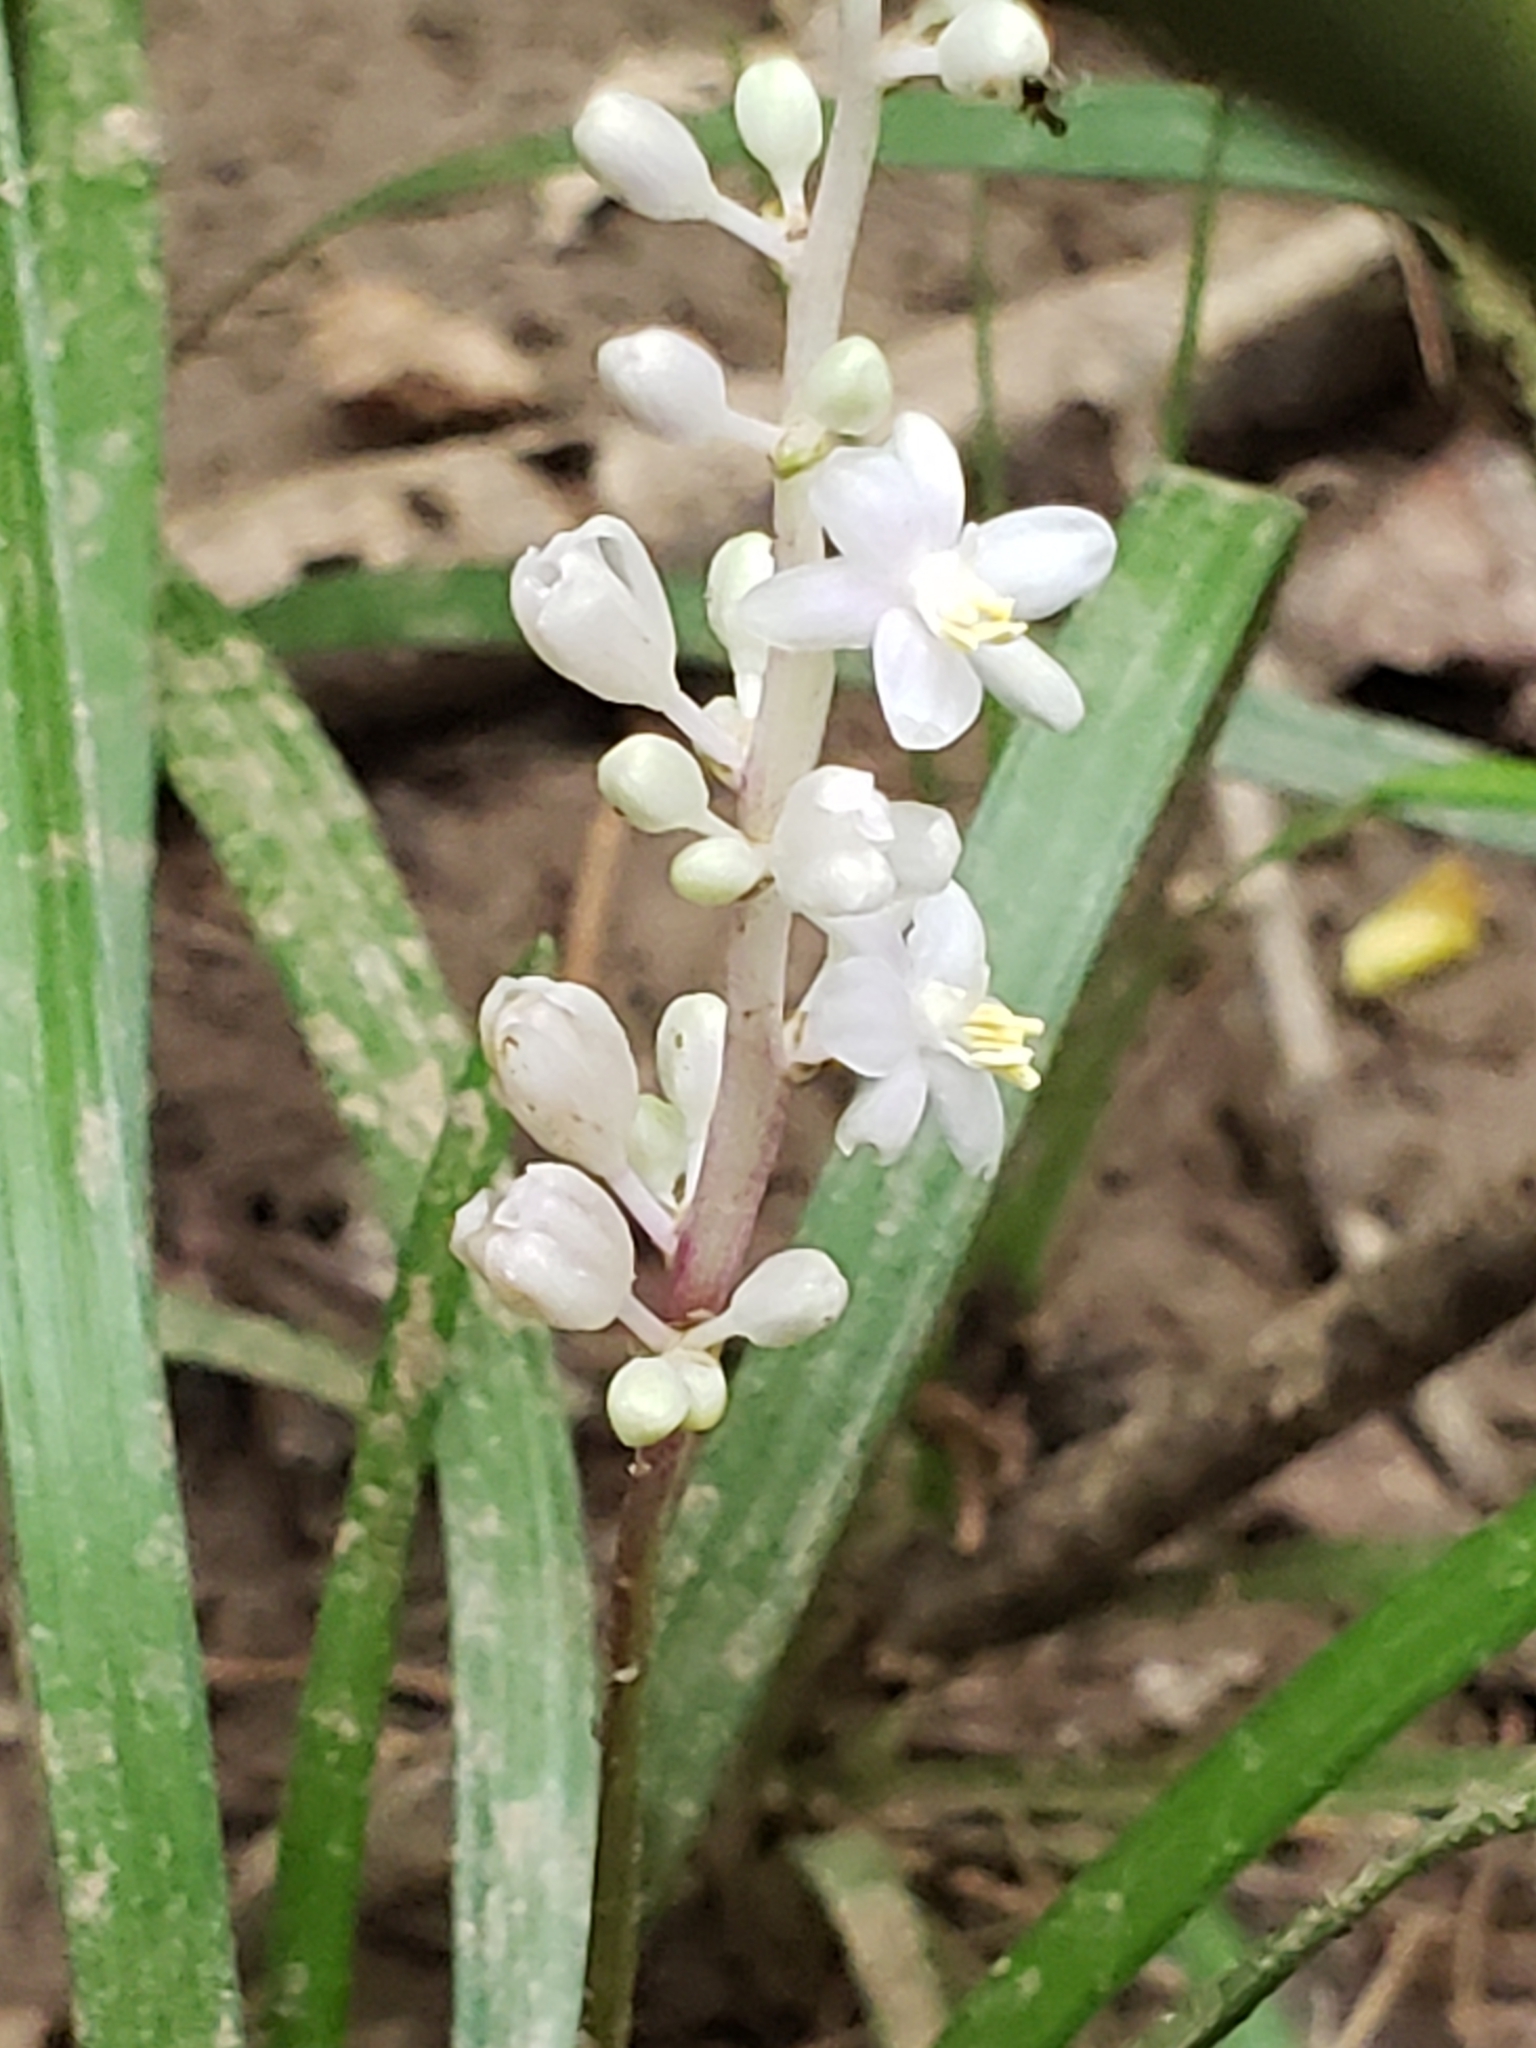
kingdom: Plantae
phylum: Tracheophyta
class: Liliopsida
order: Asparagales
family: Asparagaceae
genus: Liriope
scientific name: Liriope spicata
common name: Creeping liriope
